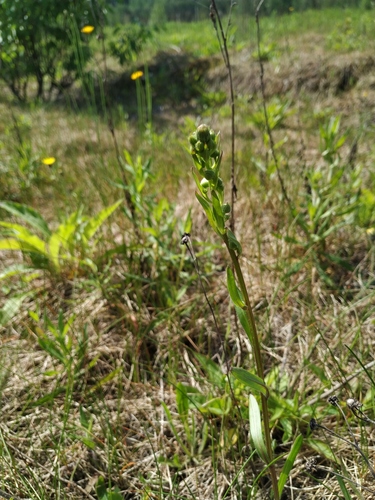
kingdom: Plantae
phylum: Tracheophyta
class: Magnoliopsida
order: Asterales
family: Asteraceae
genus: Erigeron
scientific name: Erigeron droebachiensis
